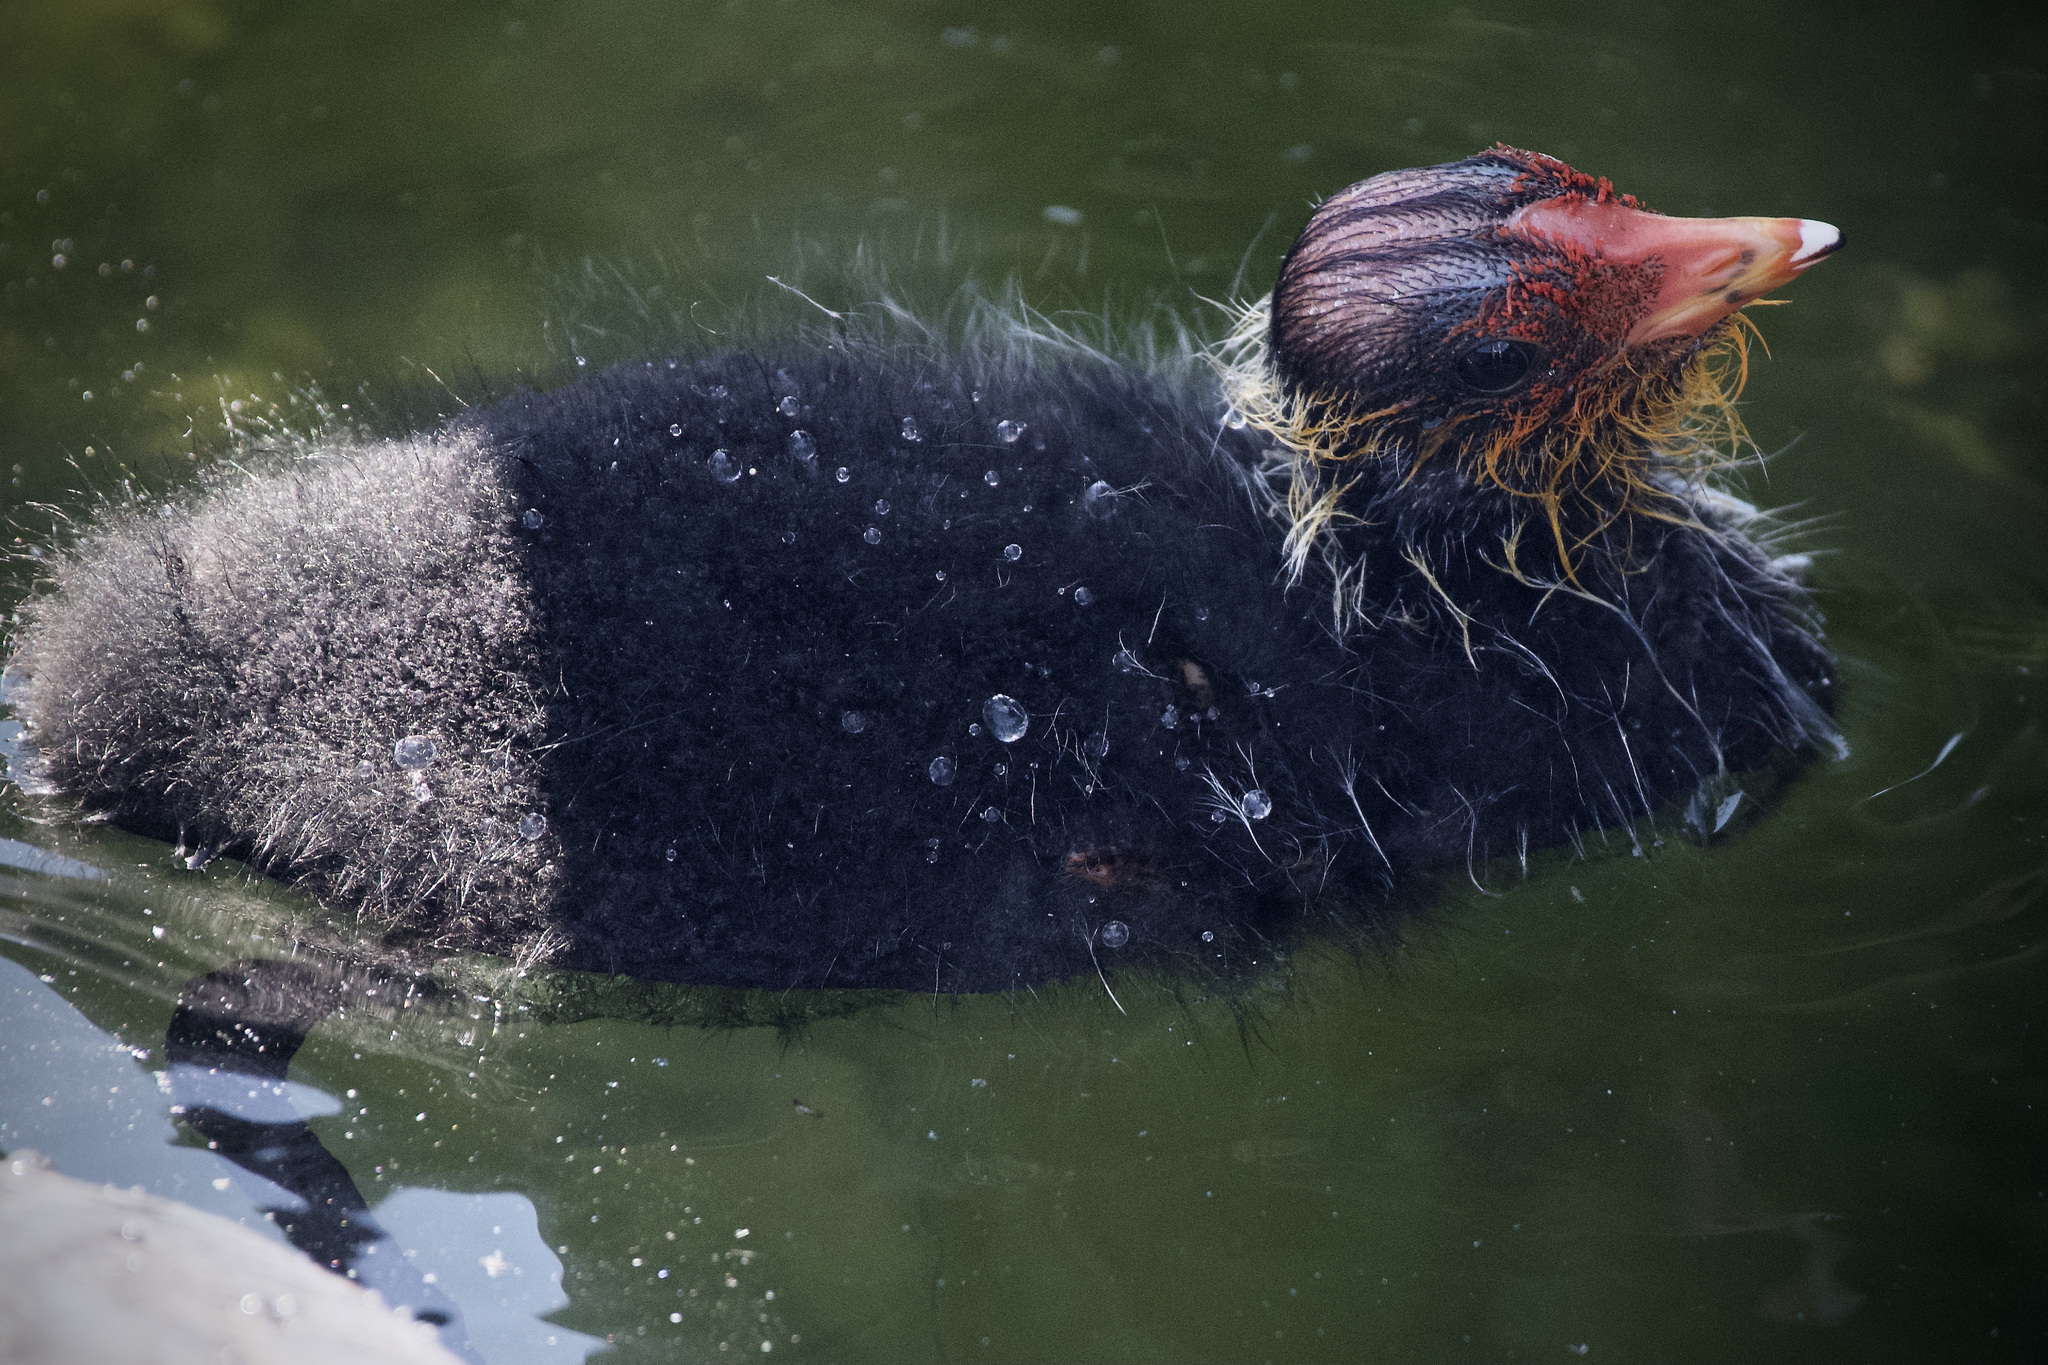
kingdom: Animalia
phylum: Chordata
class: Aves
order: Gruiformes
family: Rallidae
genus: Fulica
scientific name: Fulica atra
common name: Eurasian coot
